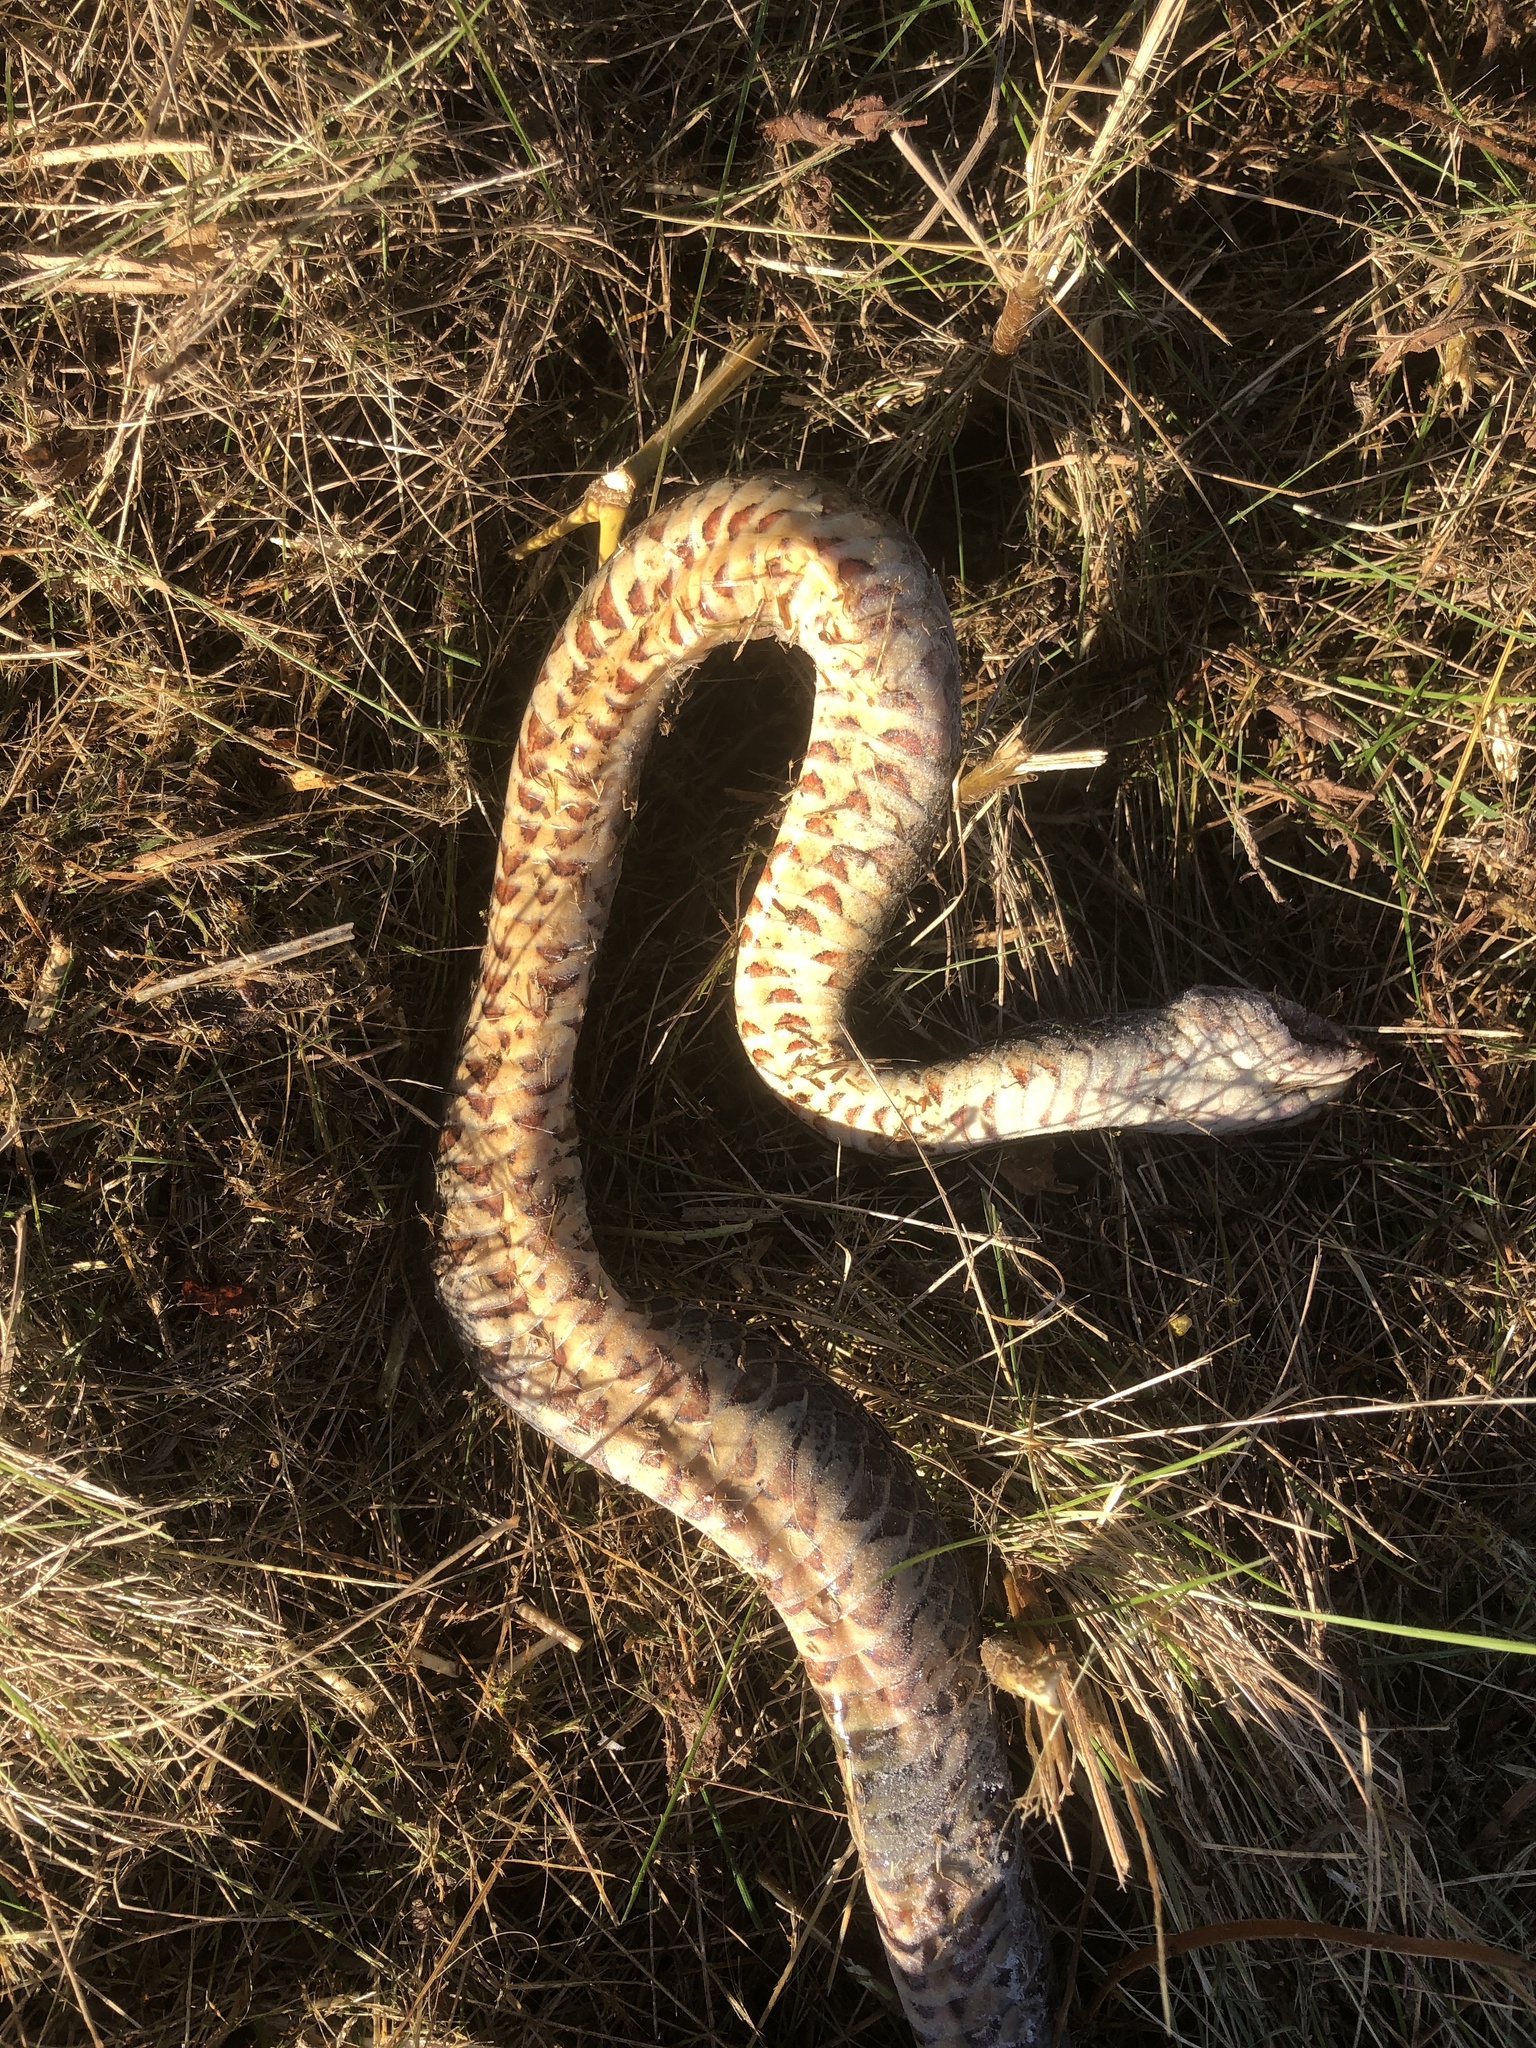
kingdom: Animalia
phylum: Chordata
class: Squamata
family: Colubridae
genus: Nerodia
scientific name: Nerodia sipedon
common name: Northern water snake
